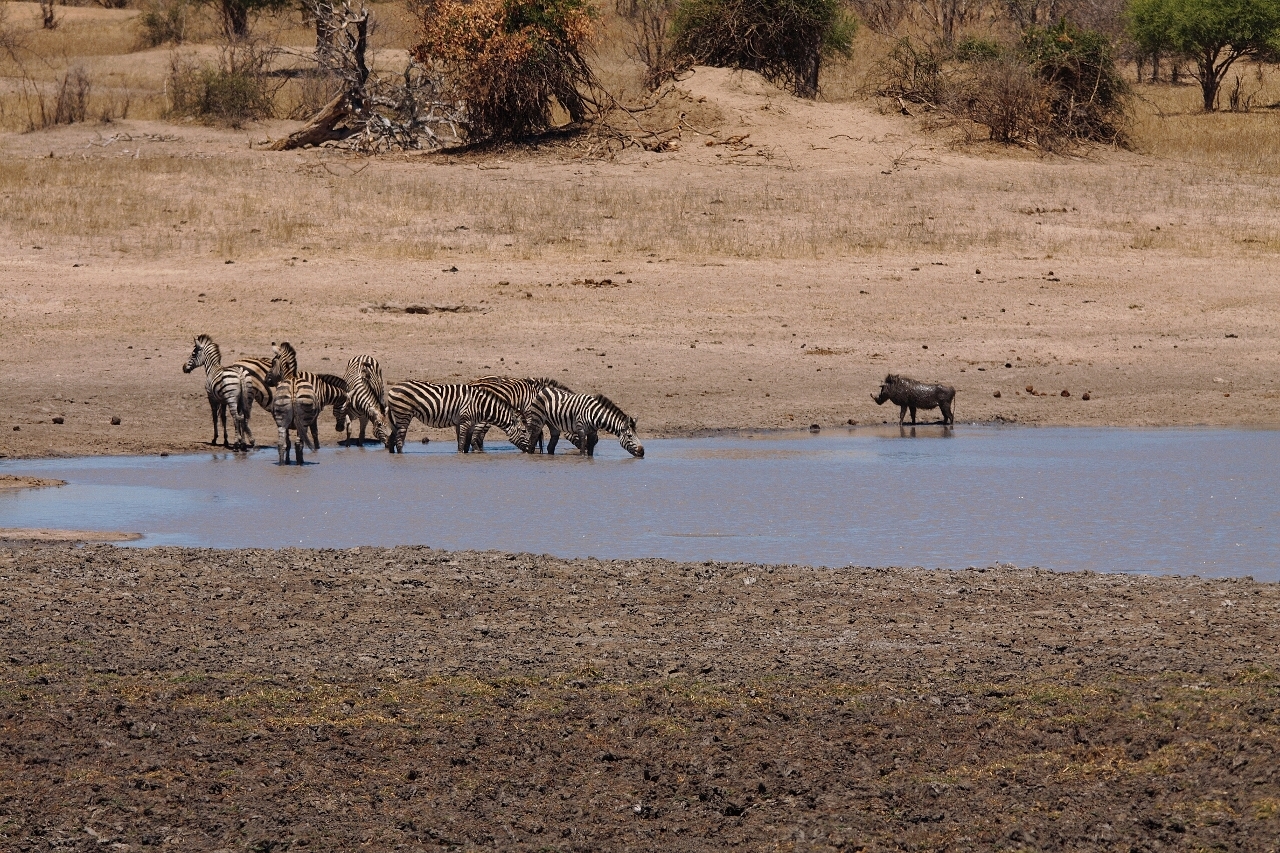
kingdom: Animalia
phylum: Chordata
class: Mammalia
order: Perissodactyla
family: Equidae
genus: Equus
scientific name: Equus quagga
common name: Plains zebra
